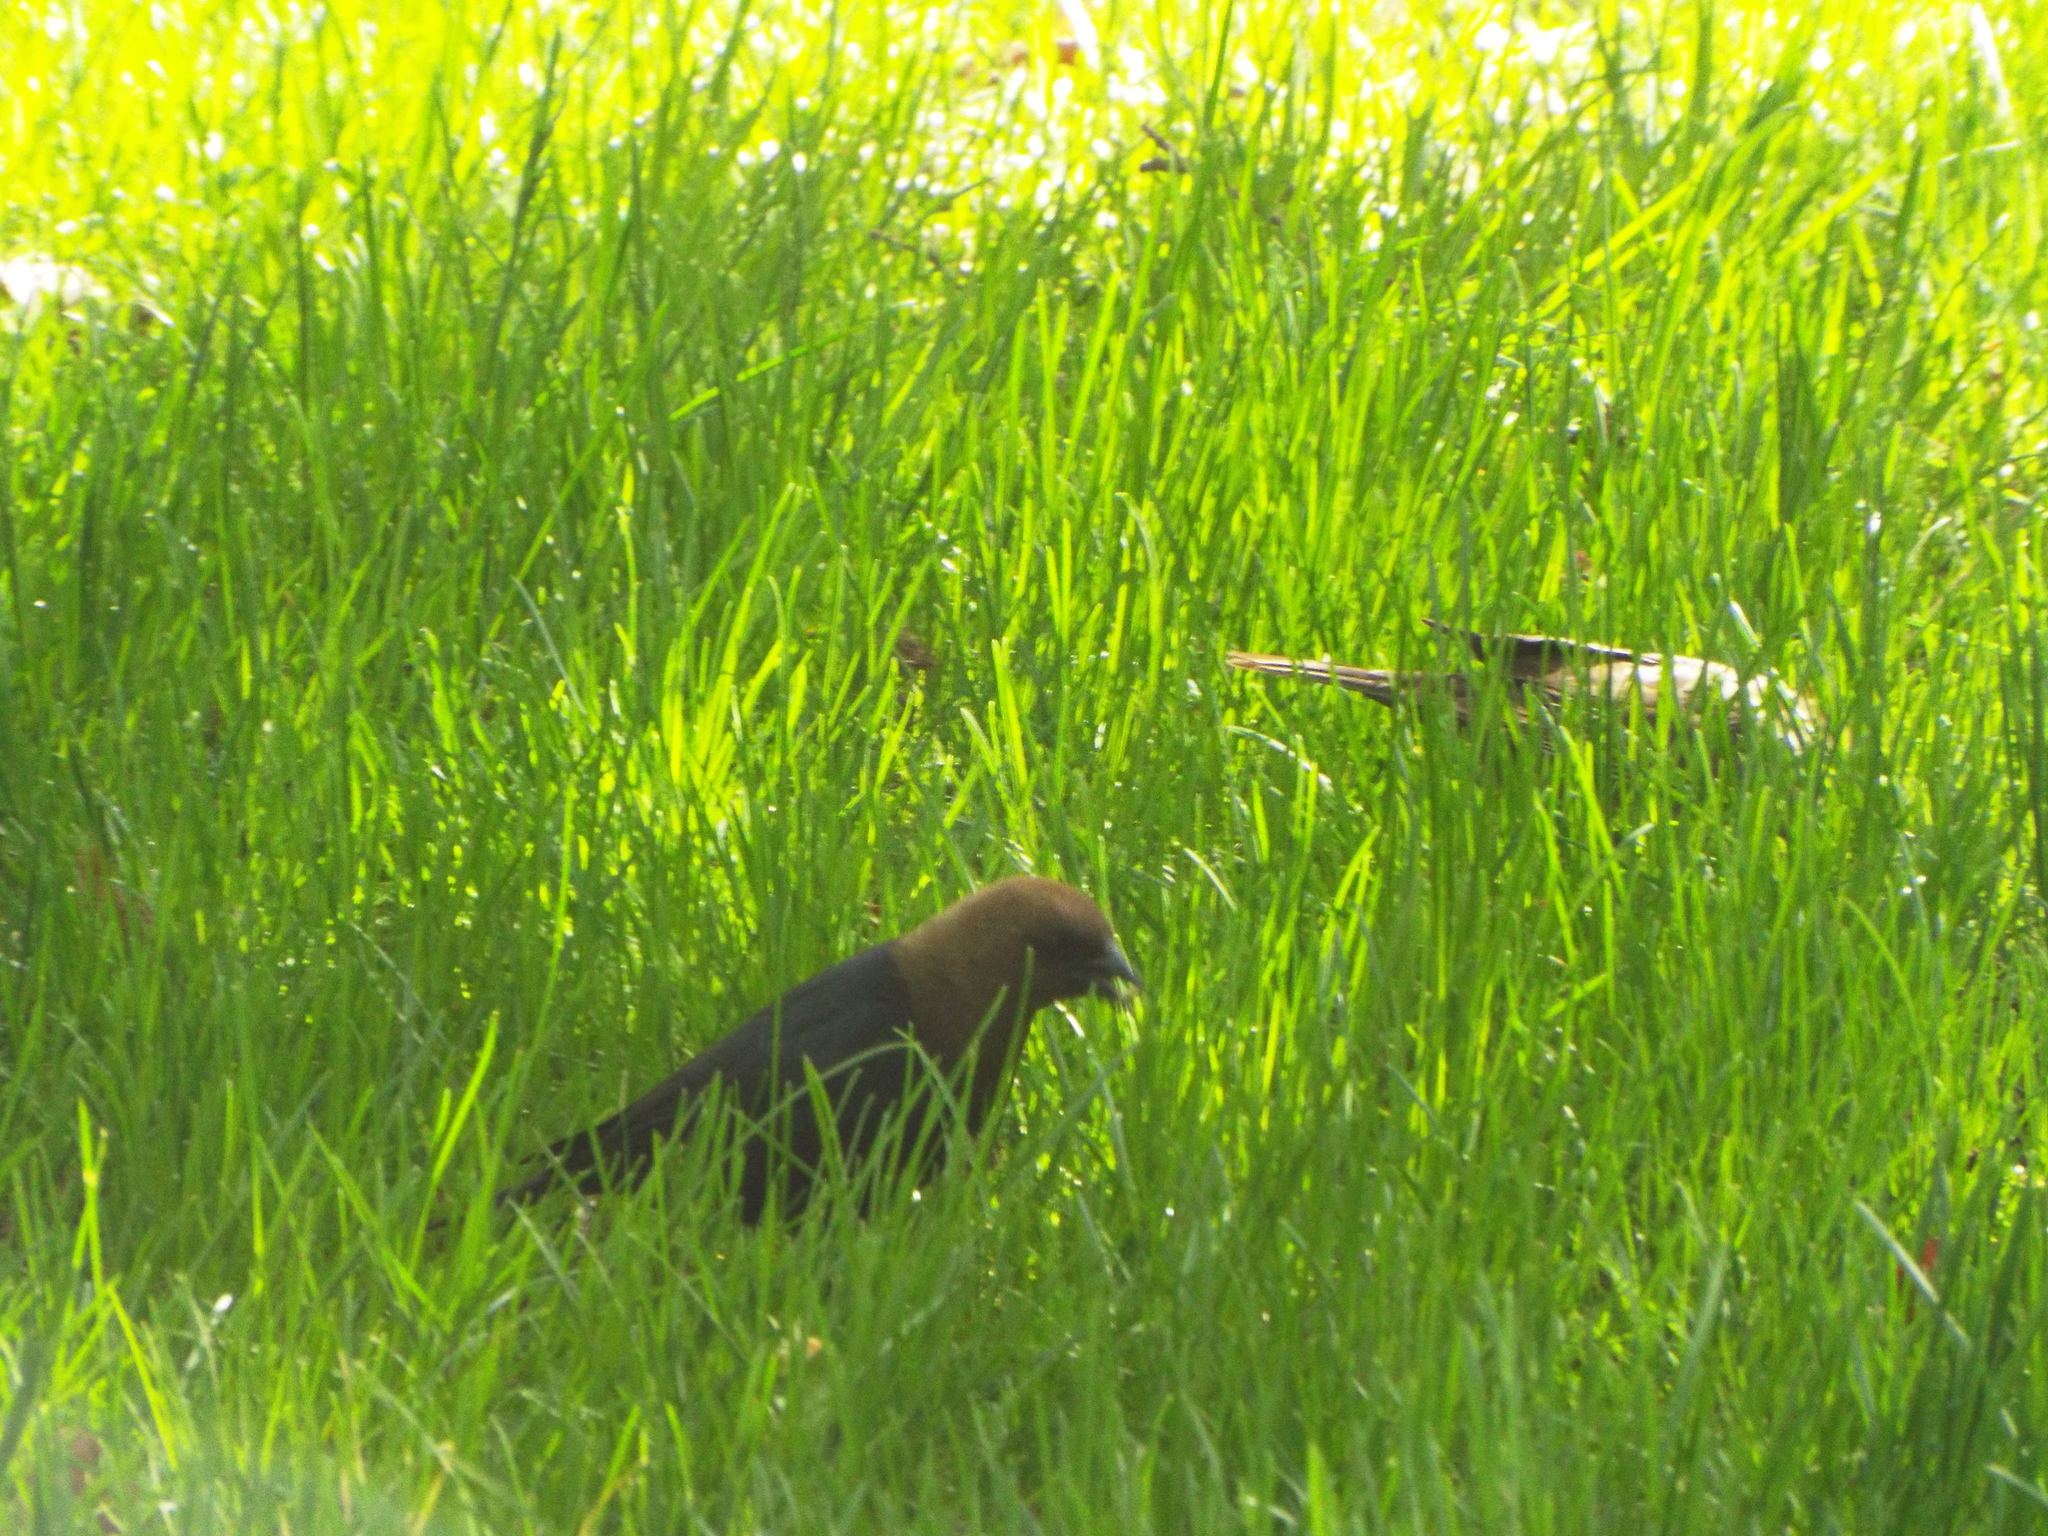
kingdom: Animalia
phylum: Chordata
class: Aves
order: Passeriformes
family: Icteridae
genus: Molothrus
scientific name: Molothrus ater
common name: Brown-headed cowbird
